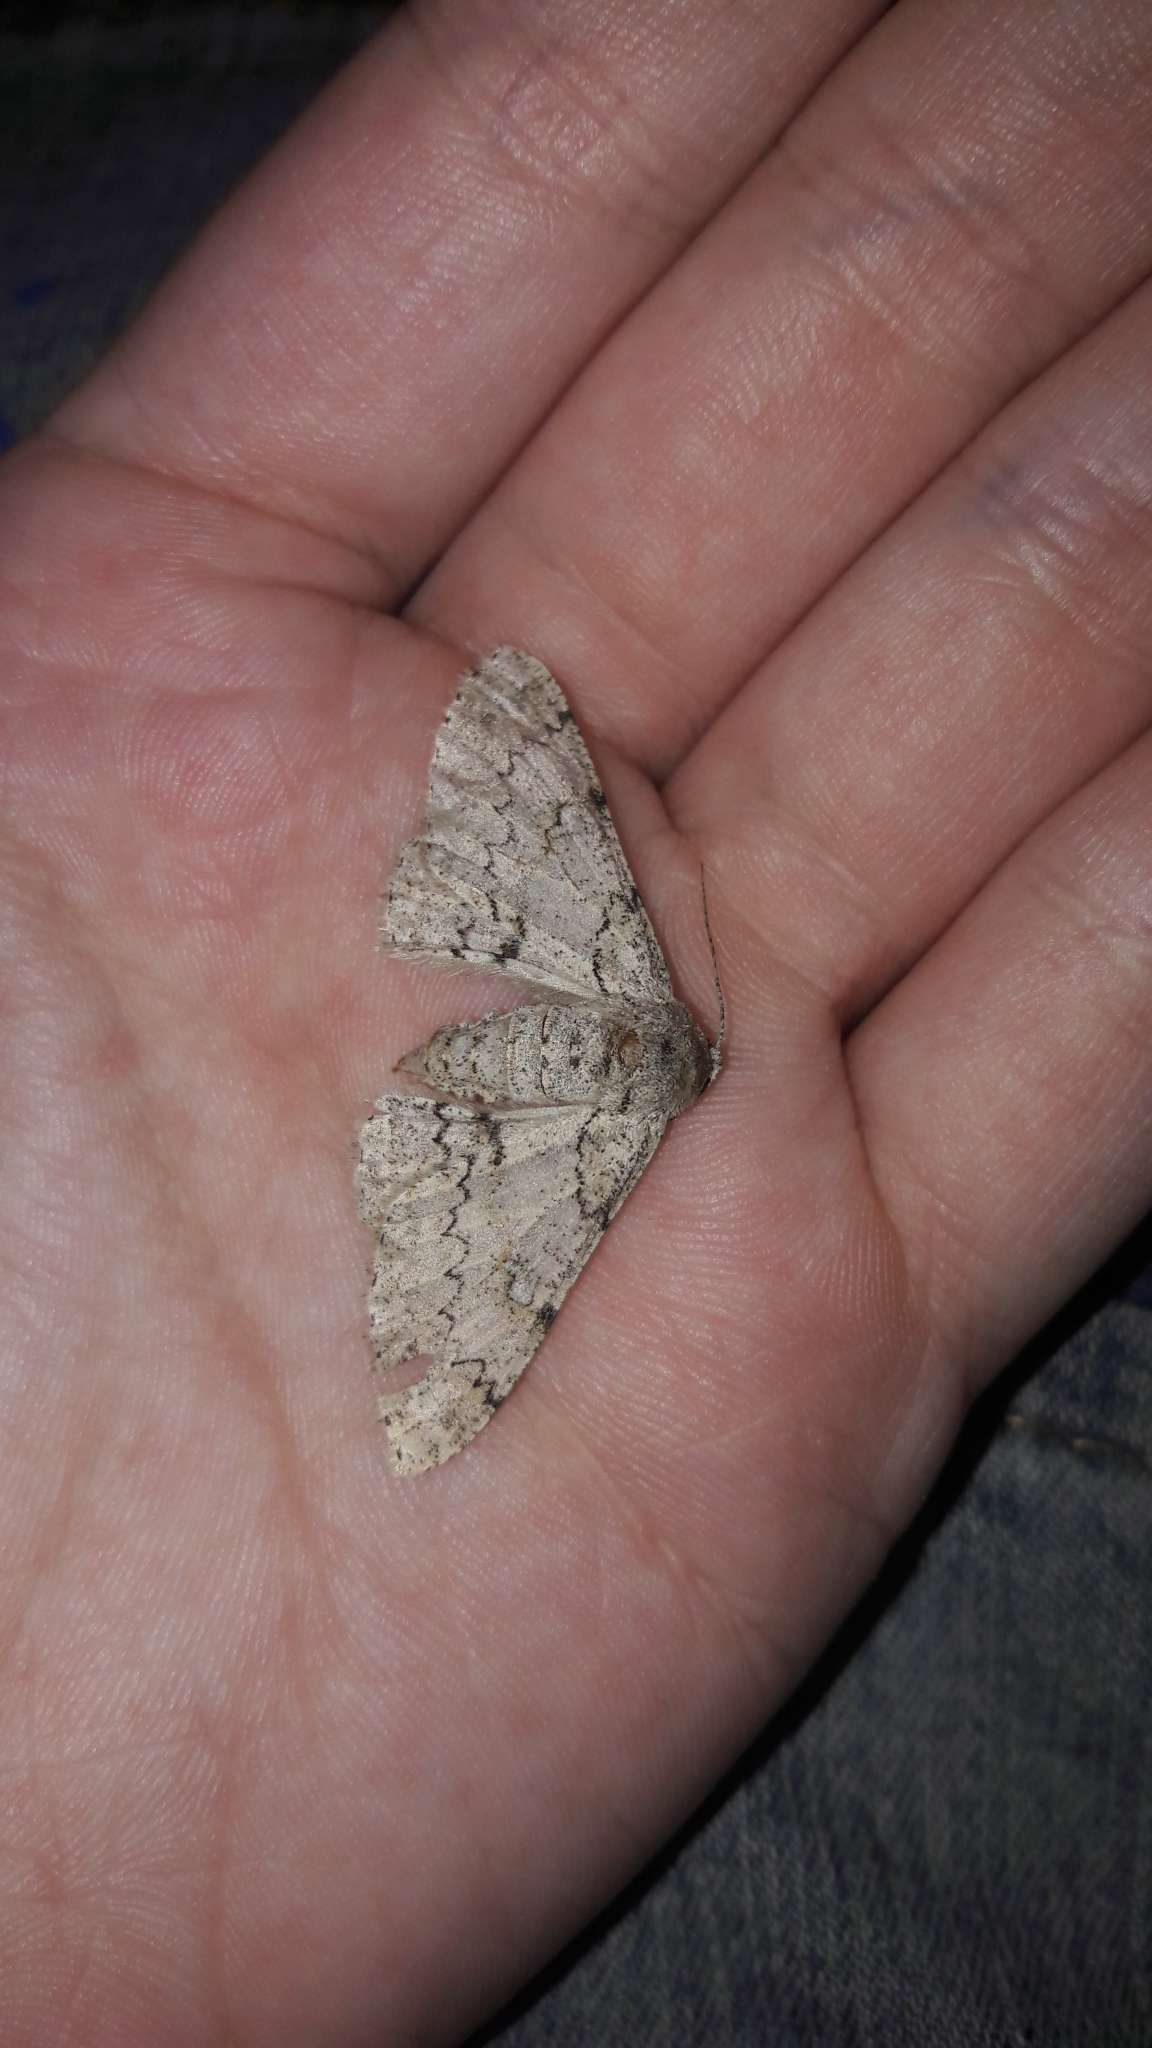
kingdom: Animalia
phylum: Arthropoda
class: Insecta
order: Lepidoptera
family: Geometridae
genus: Ascotis
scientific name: Ascotis selenaria
